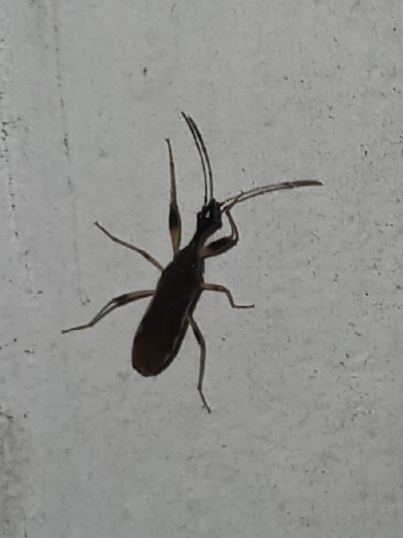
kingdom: Animalia
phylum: Arthropoda
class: Insecta
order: Hemiptera
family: Rhyparochromidae
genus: Myodocha
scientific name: Myodocha serripes
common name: Long-necked seed bug
